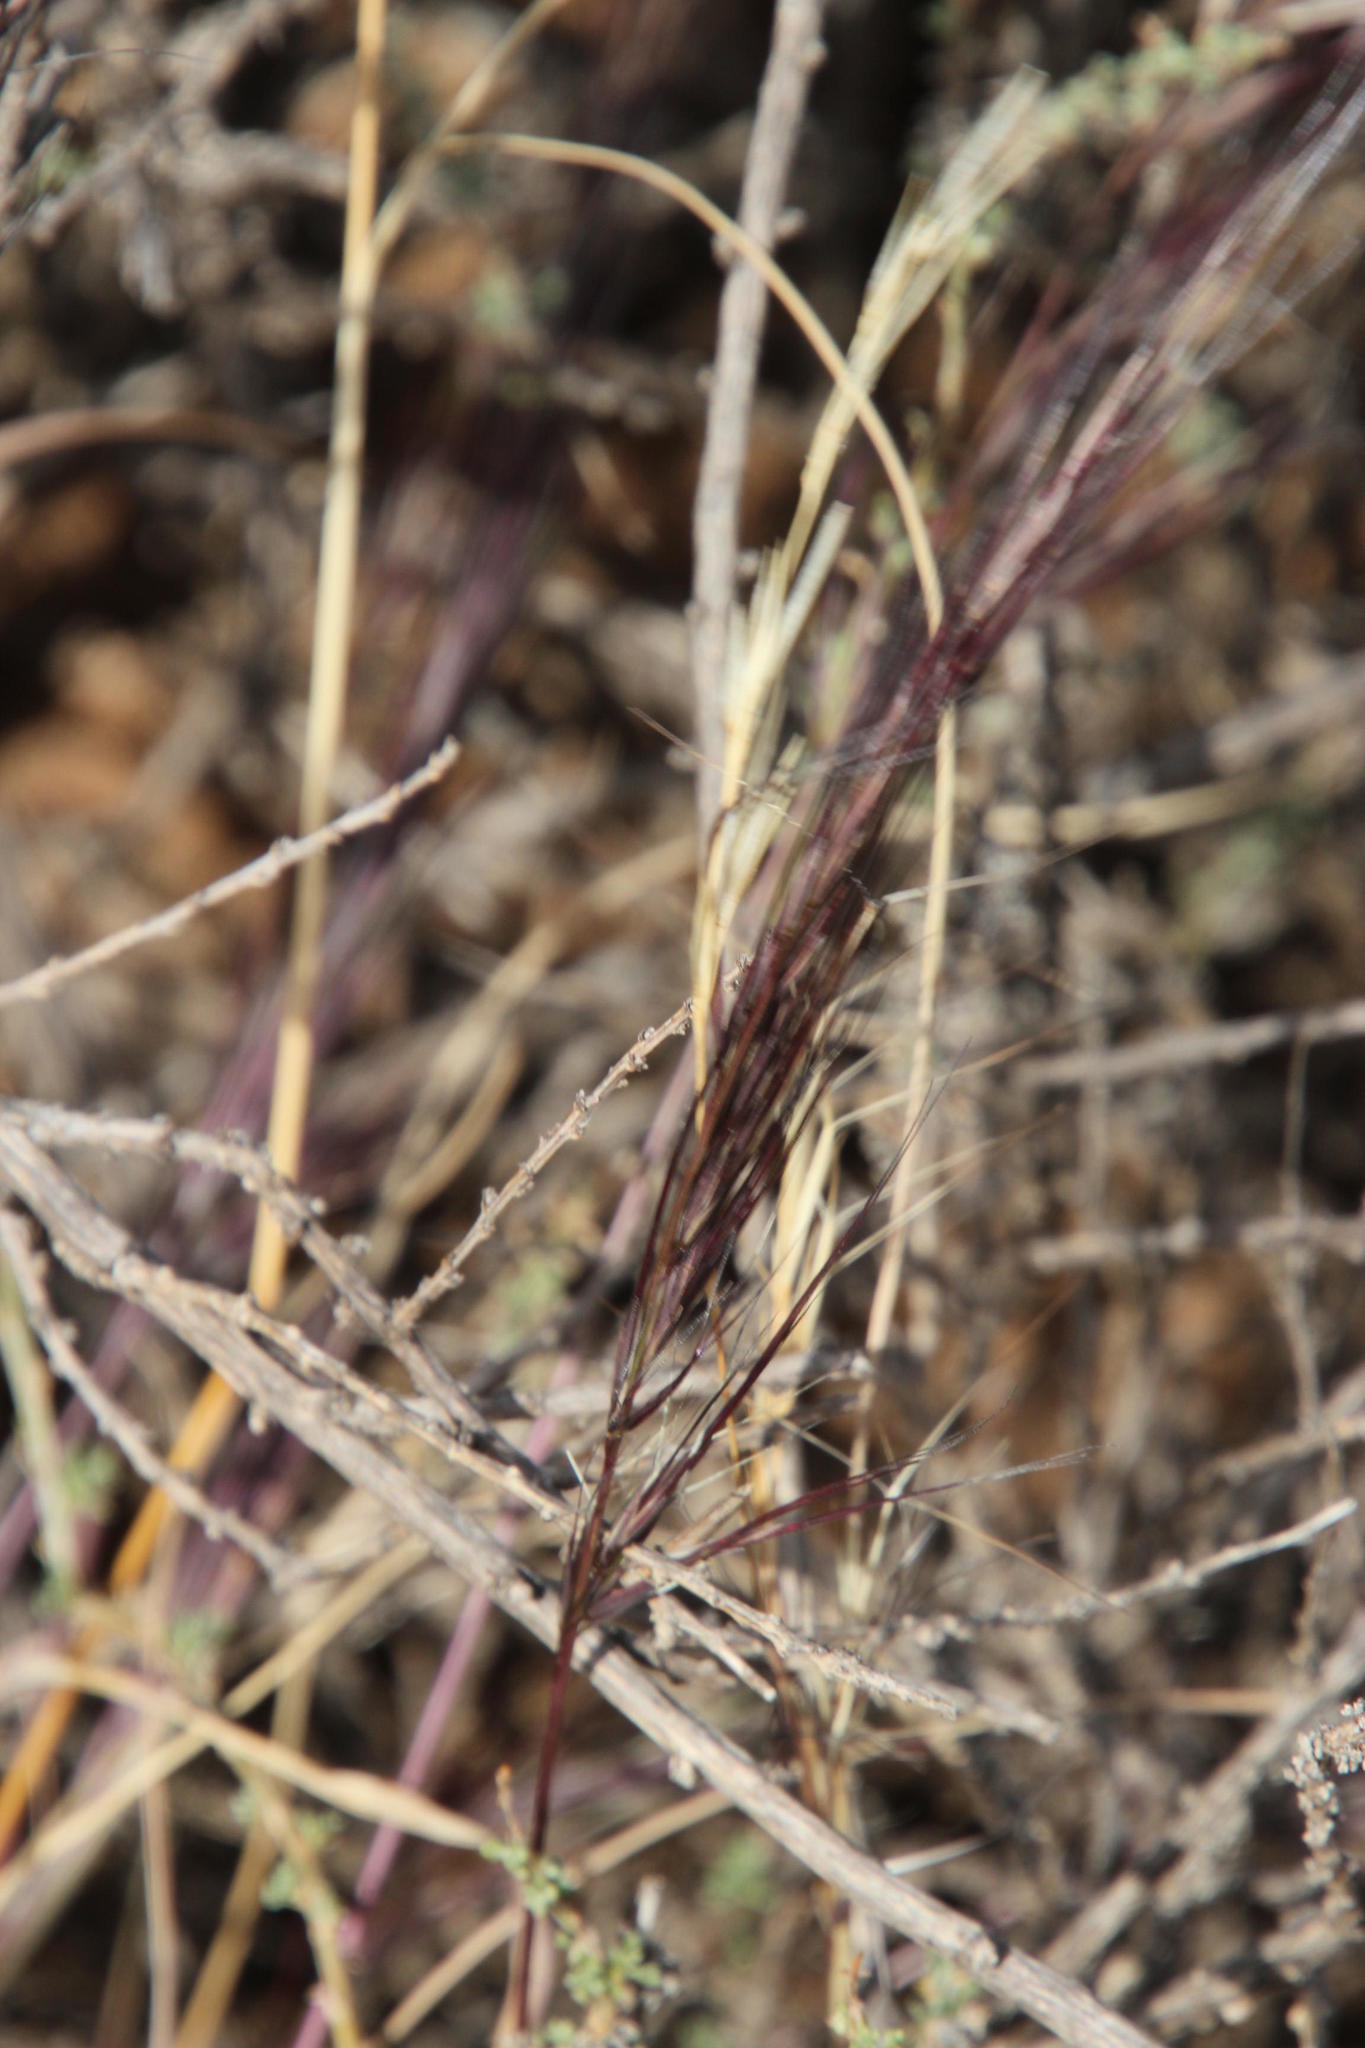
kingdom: Plantae
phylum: Tracheophyta
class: Liliopsida
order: Poales
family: Poaceae
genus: Aristida
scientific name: Aristida adscensionis
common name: Sixweeks threeawn
